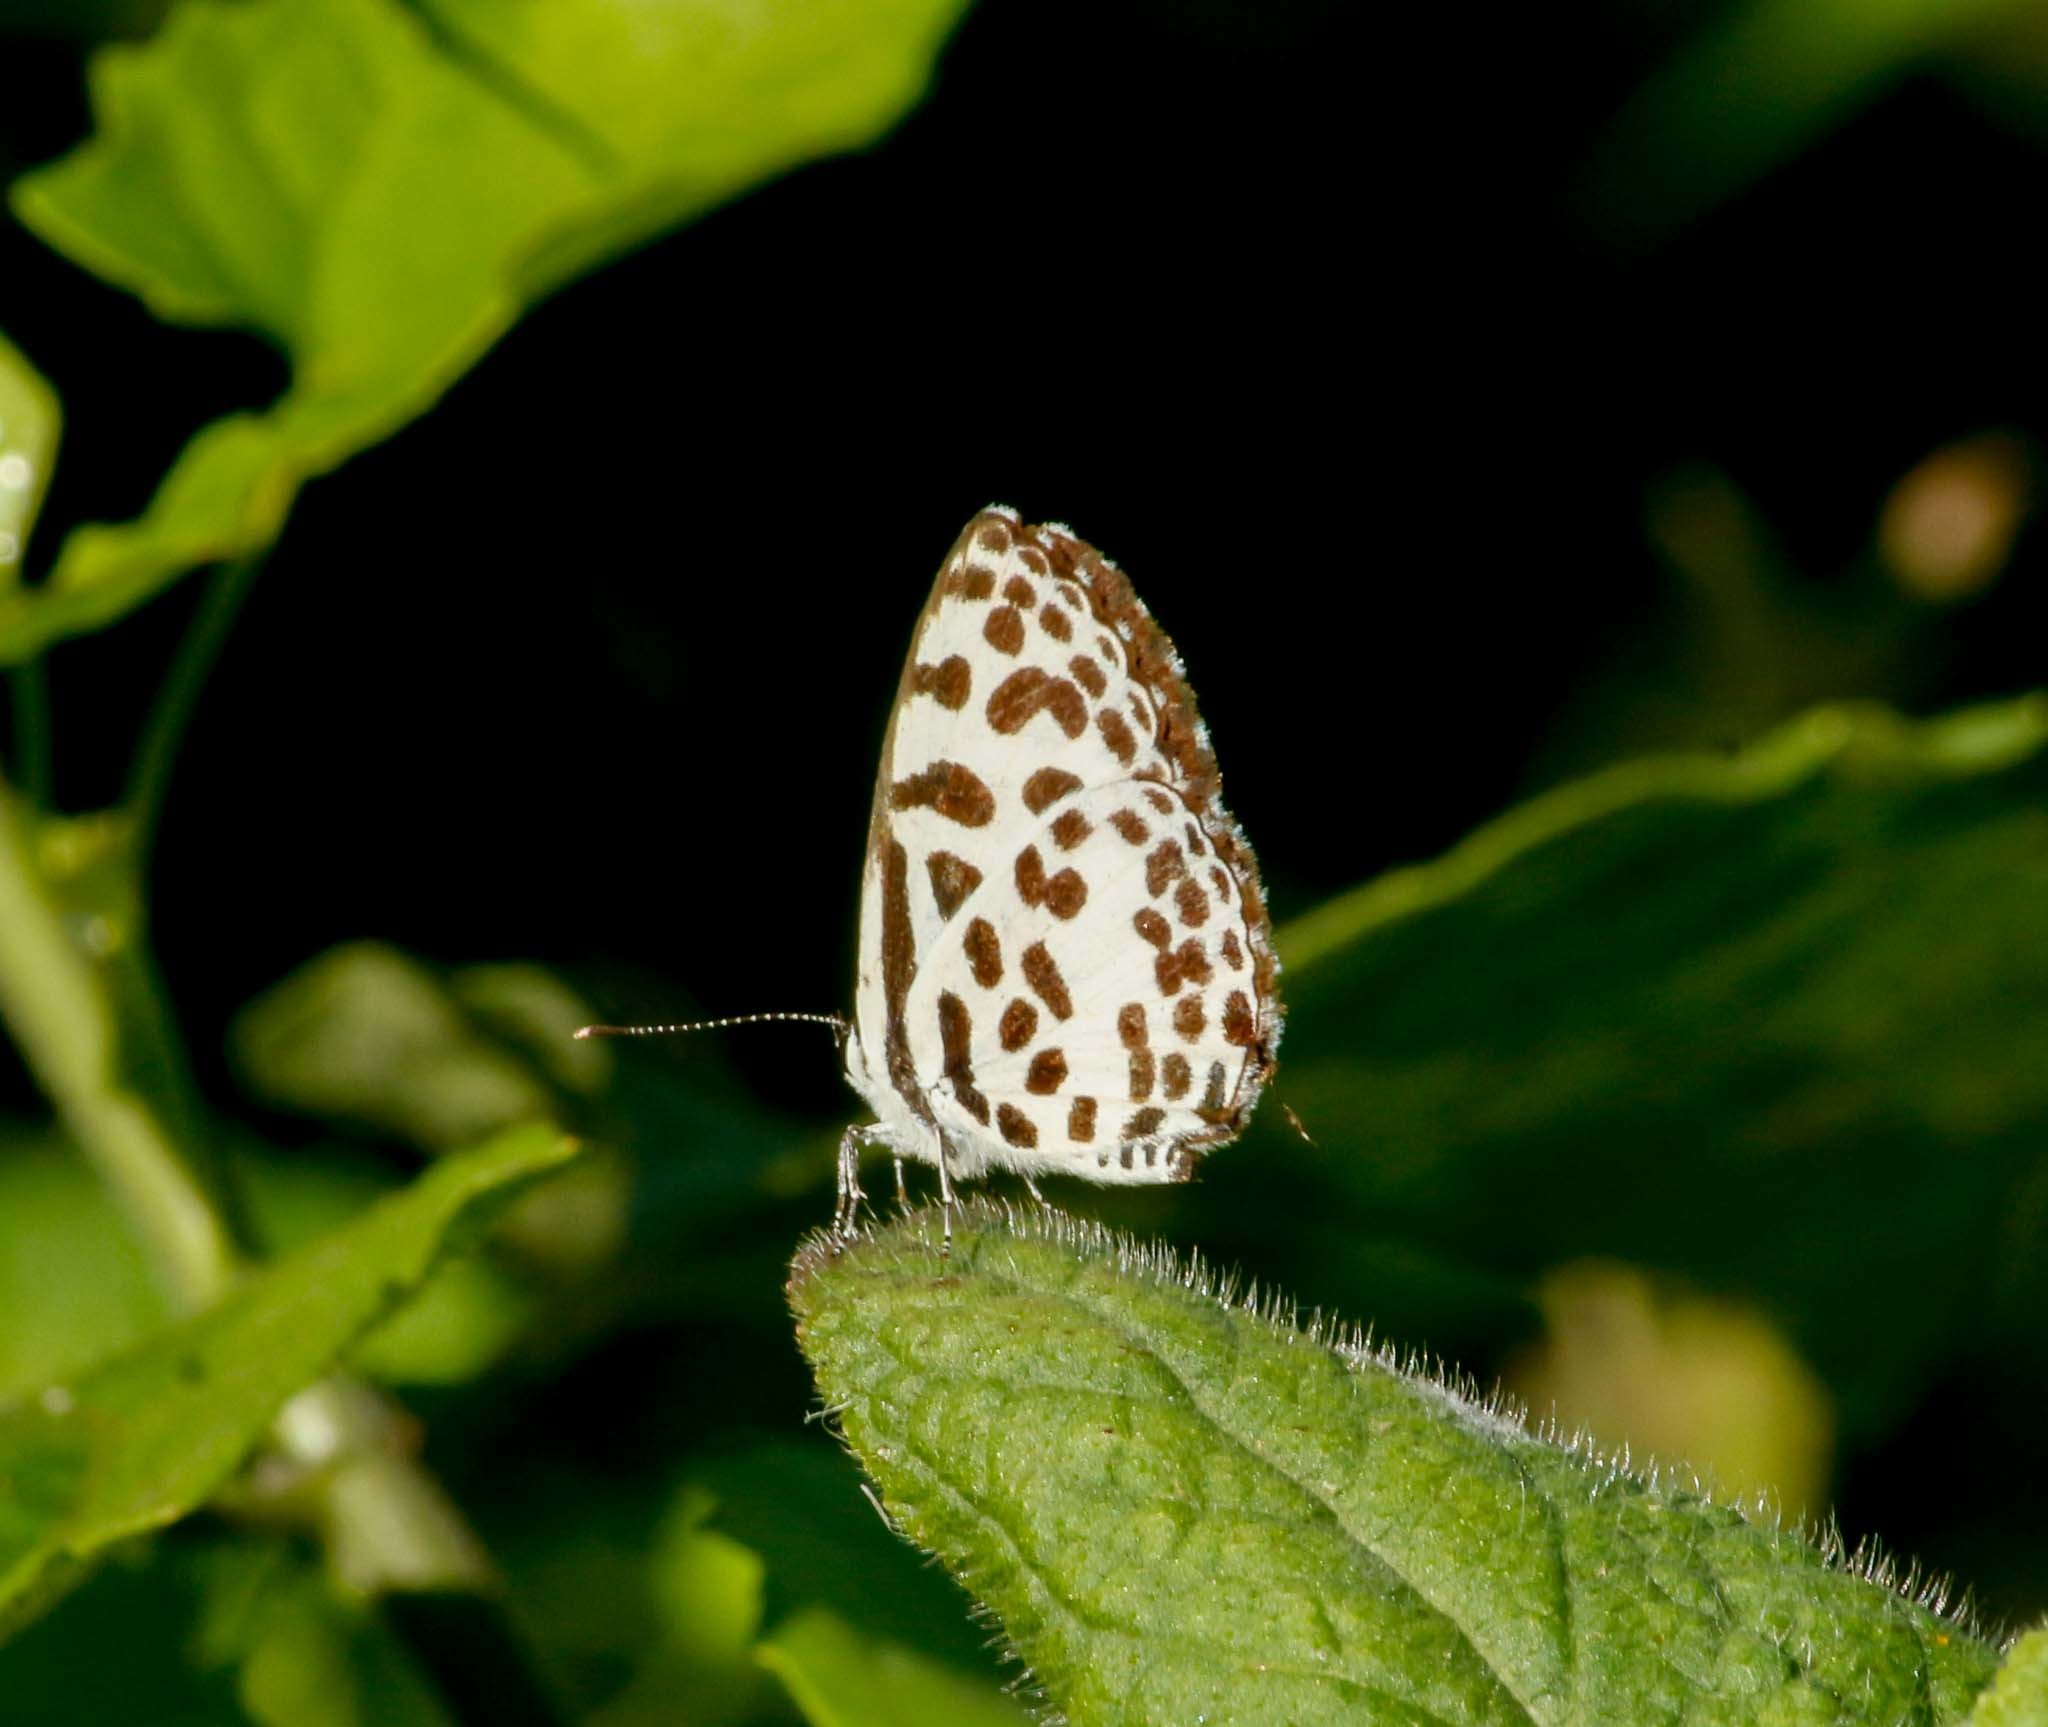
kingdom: Animalia
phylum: Arthropoda
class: Insecta
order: Lepidoptera
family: Lycaenidae
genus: Castalius
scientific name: Castalius rosimon
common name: Common pierrot
